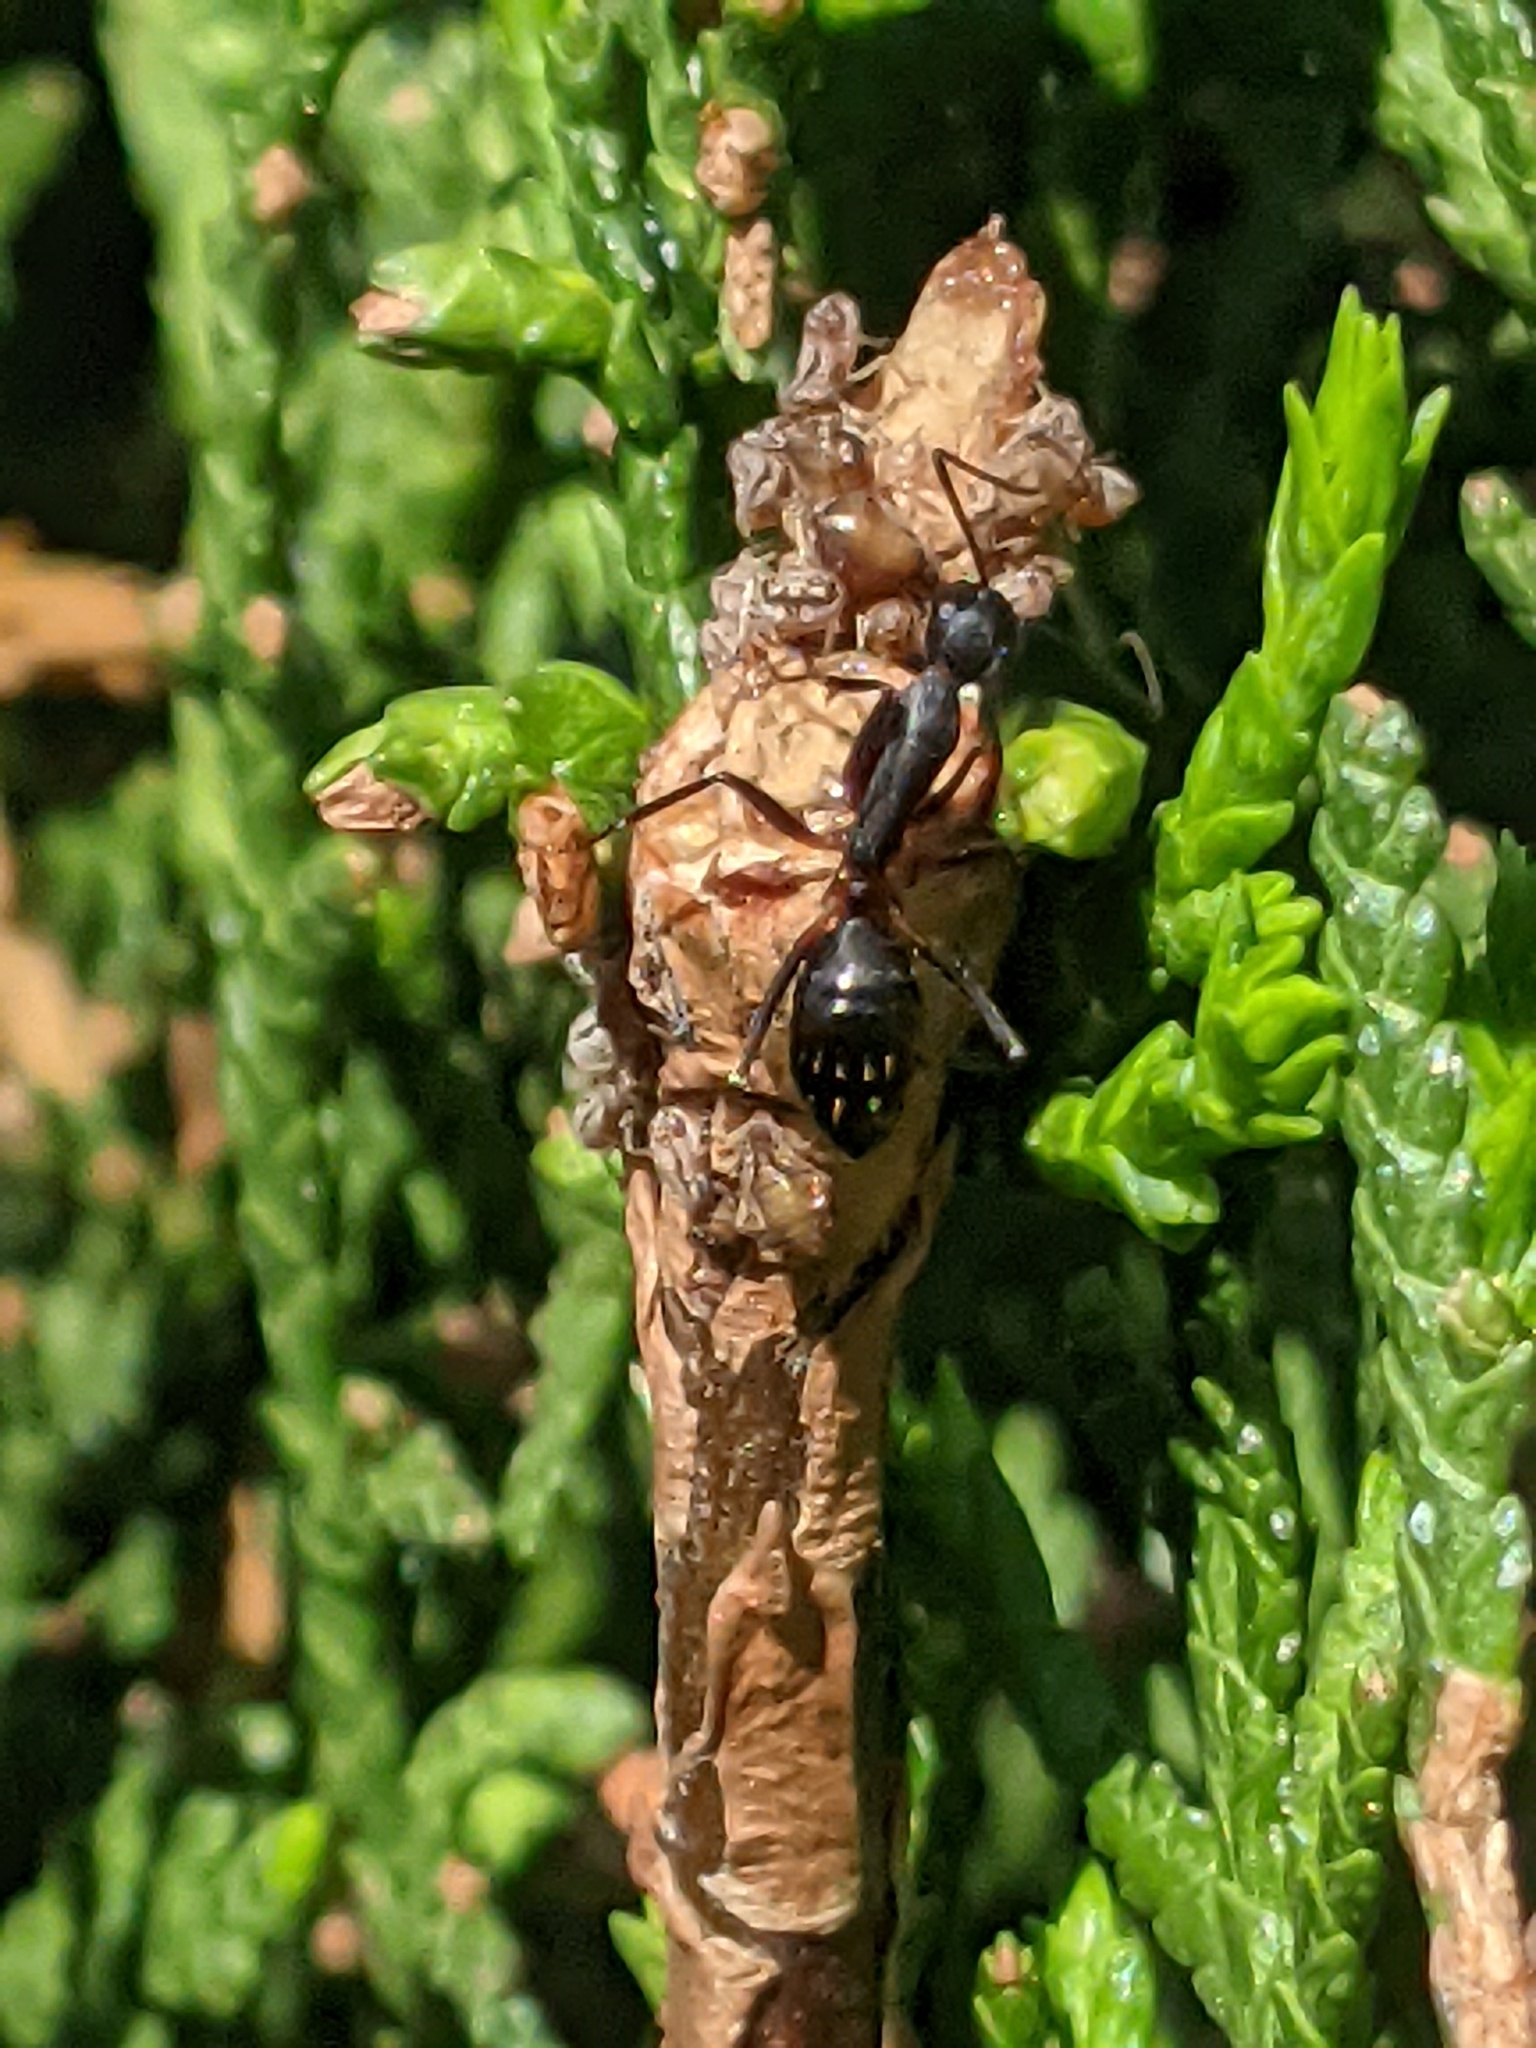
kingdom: Animalia
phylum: Arthropoda
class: Insecta
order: Hymenoptera
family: Formicidae
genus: Camponotus
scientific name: Camponotus compressus
